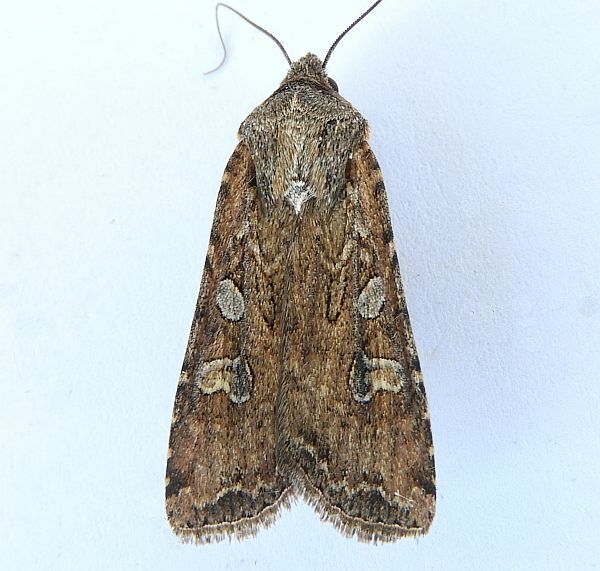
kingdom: Animalia
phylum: Arthropoda
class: Insecta
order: Lepidoptera
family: Noctuidae
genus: Euxoa
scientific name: Euxoa auxiliaris
